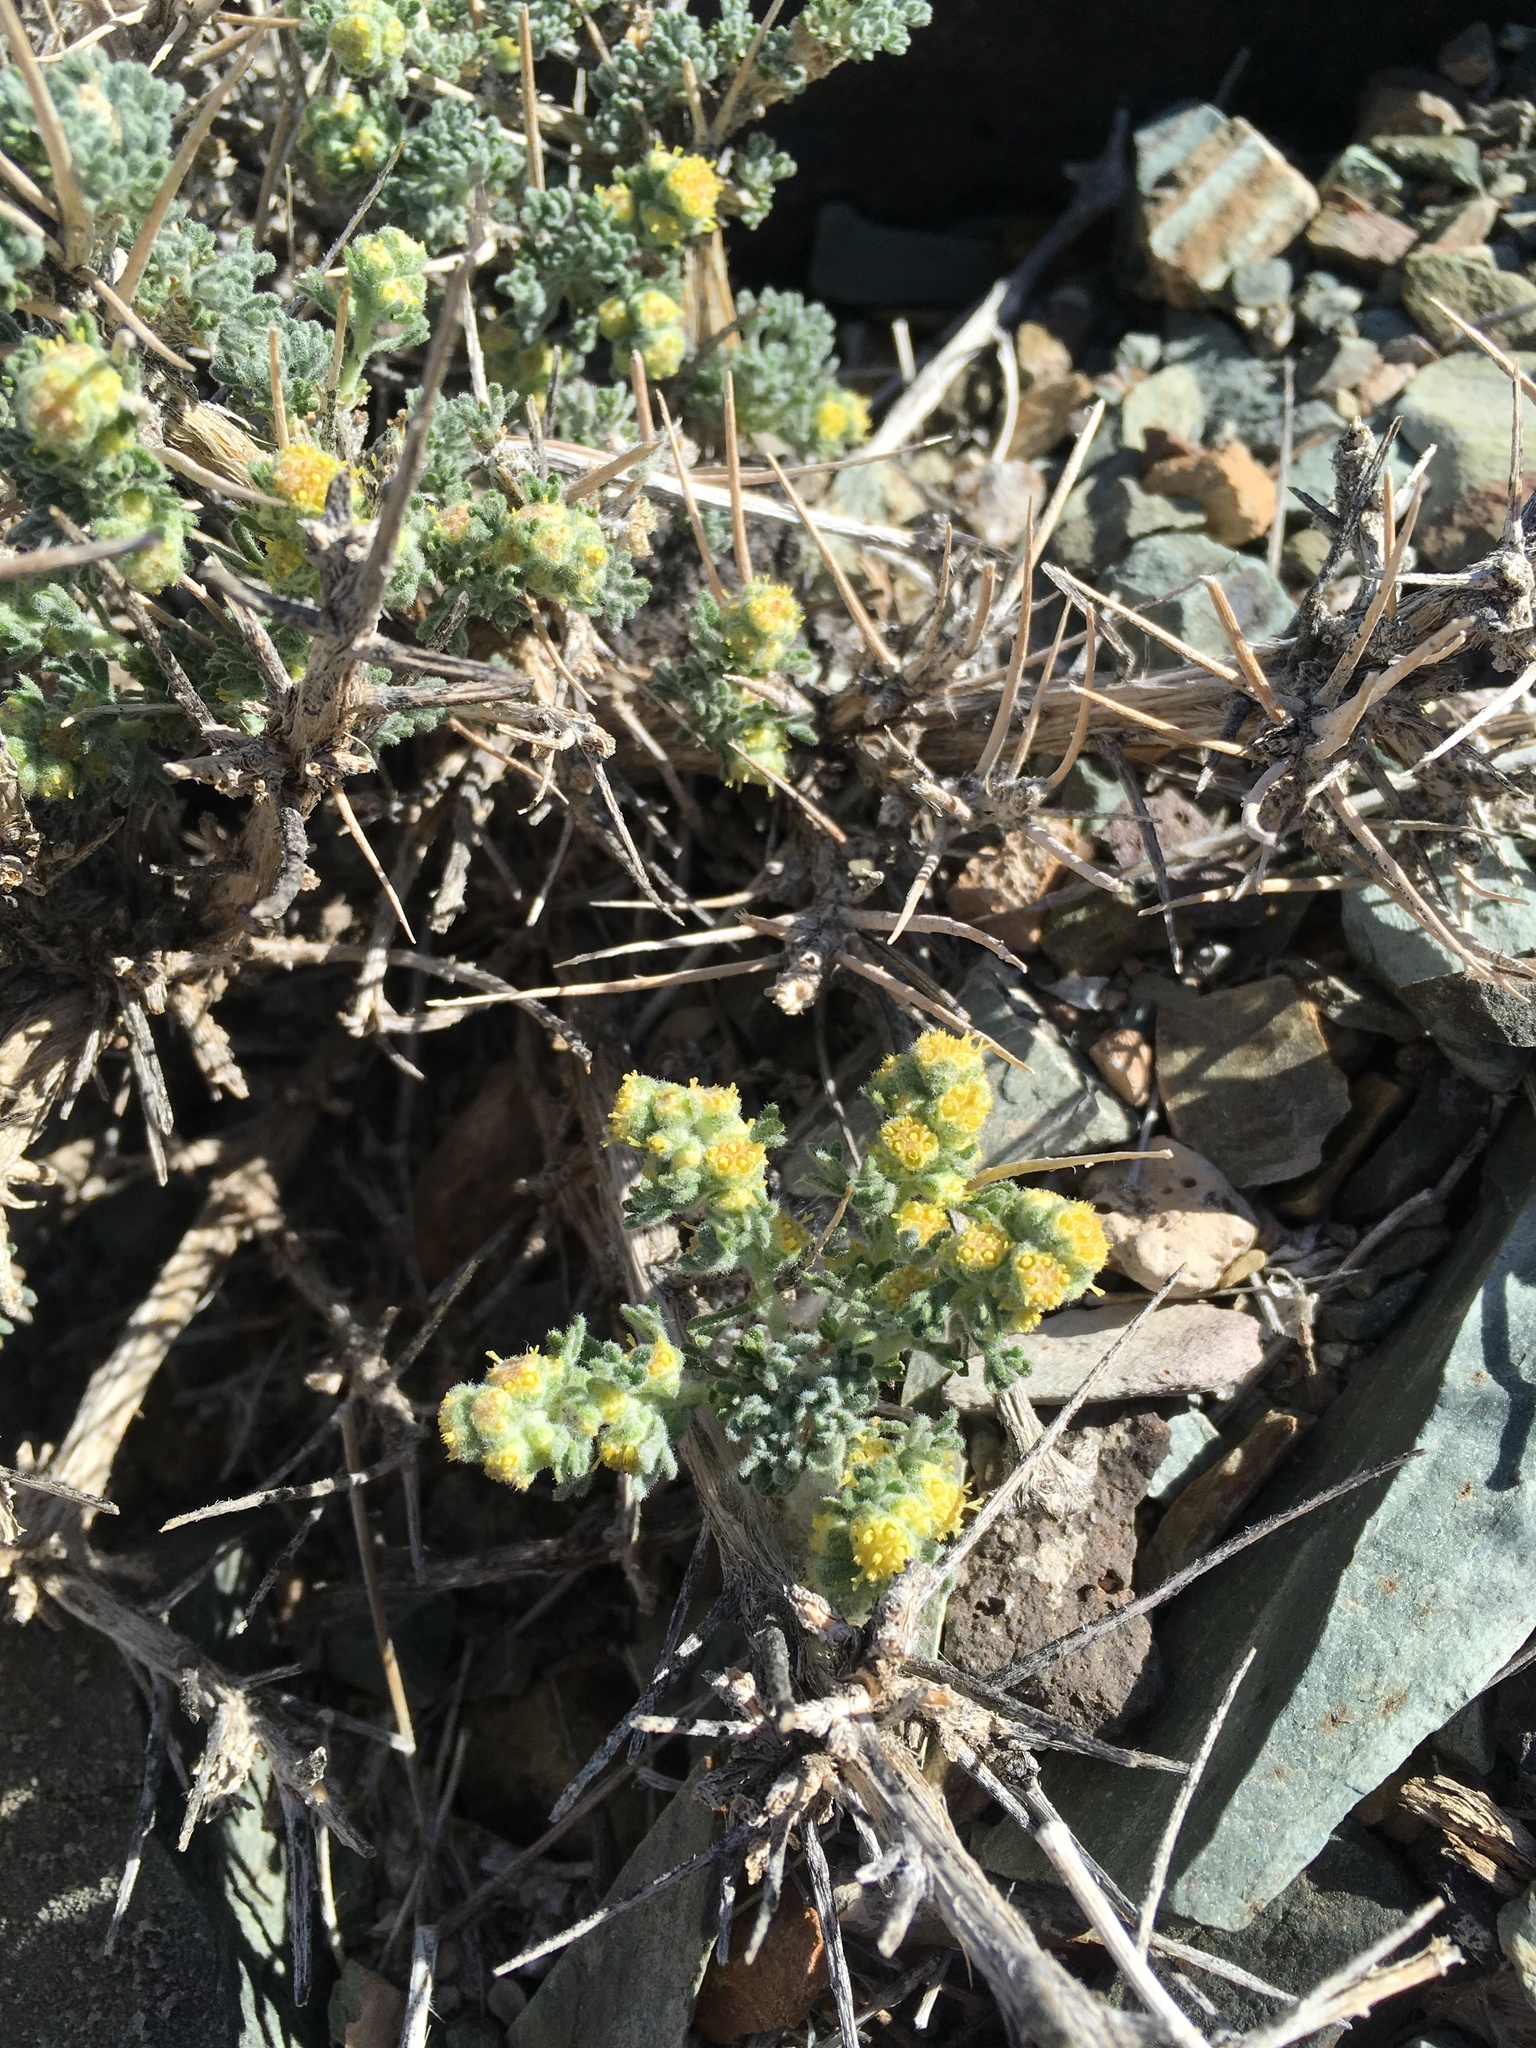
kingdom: Plantae
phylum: Tracheophyta
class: Magnoliopsida
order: Asterales
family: Asteraceae
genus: Artemisia
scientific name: Artemisia spinescens
